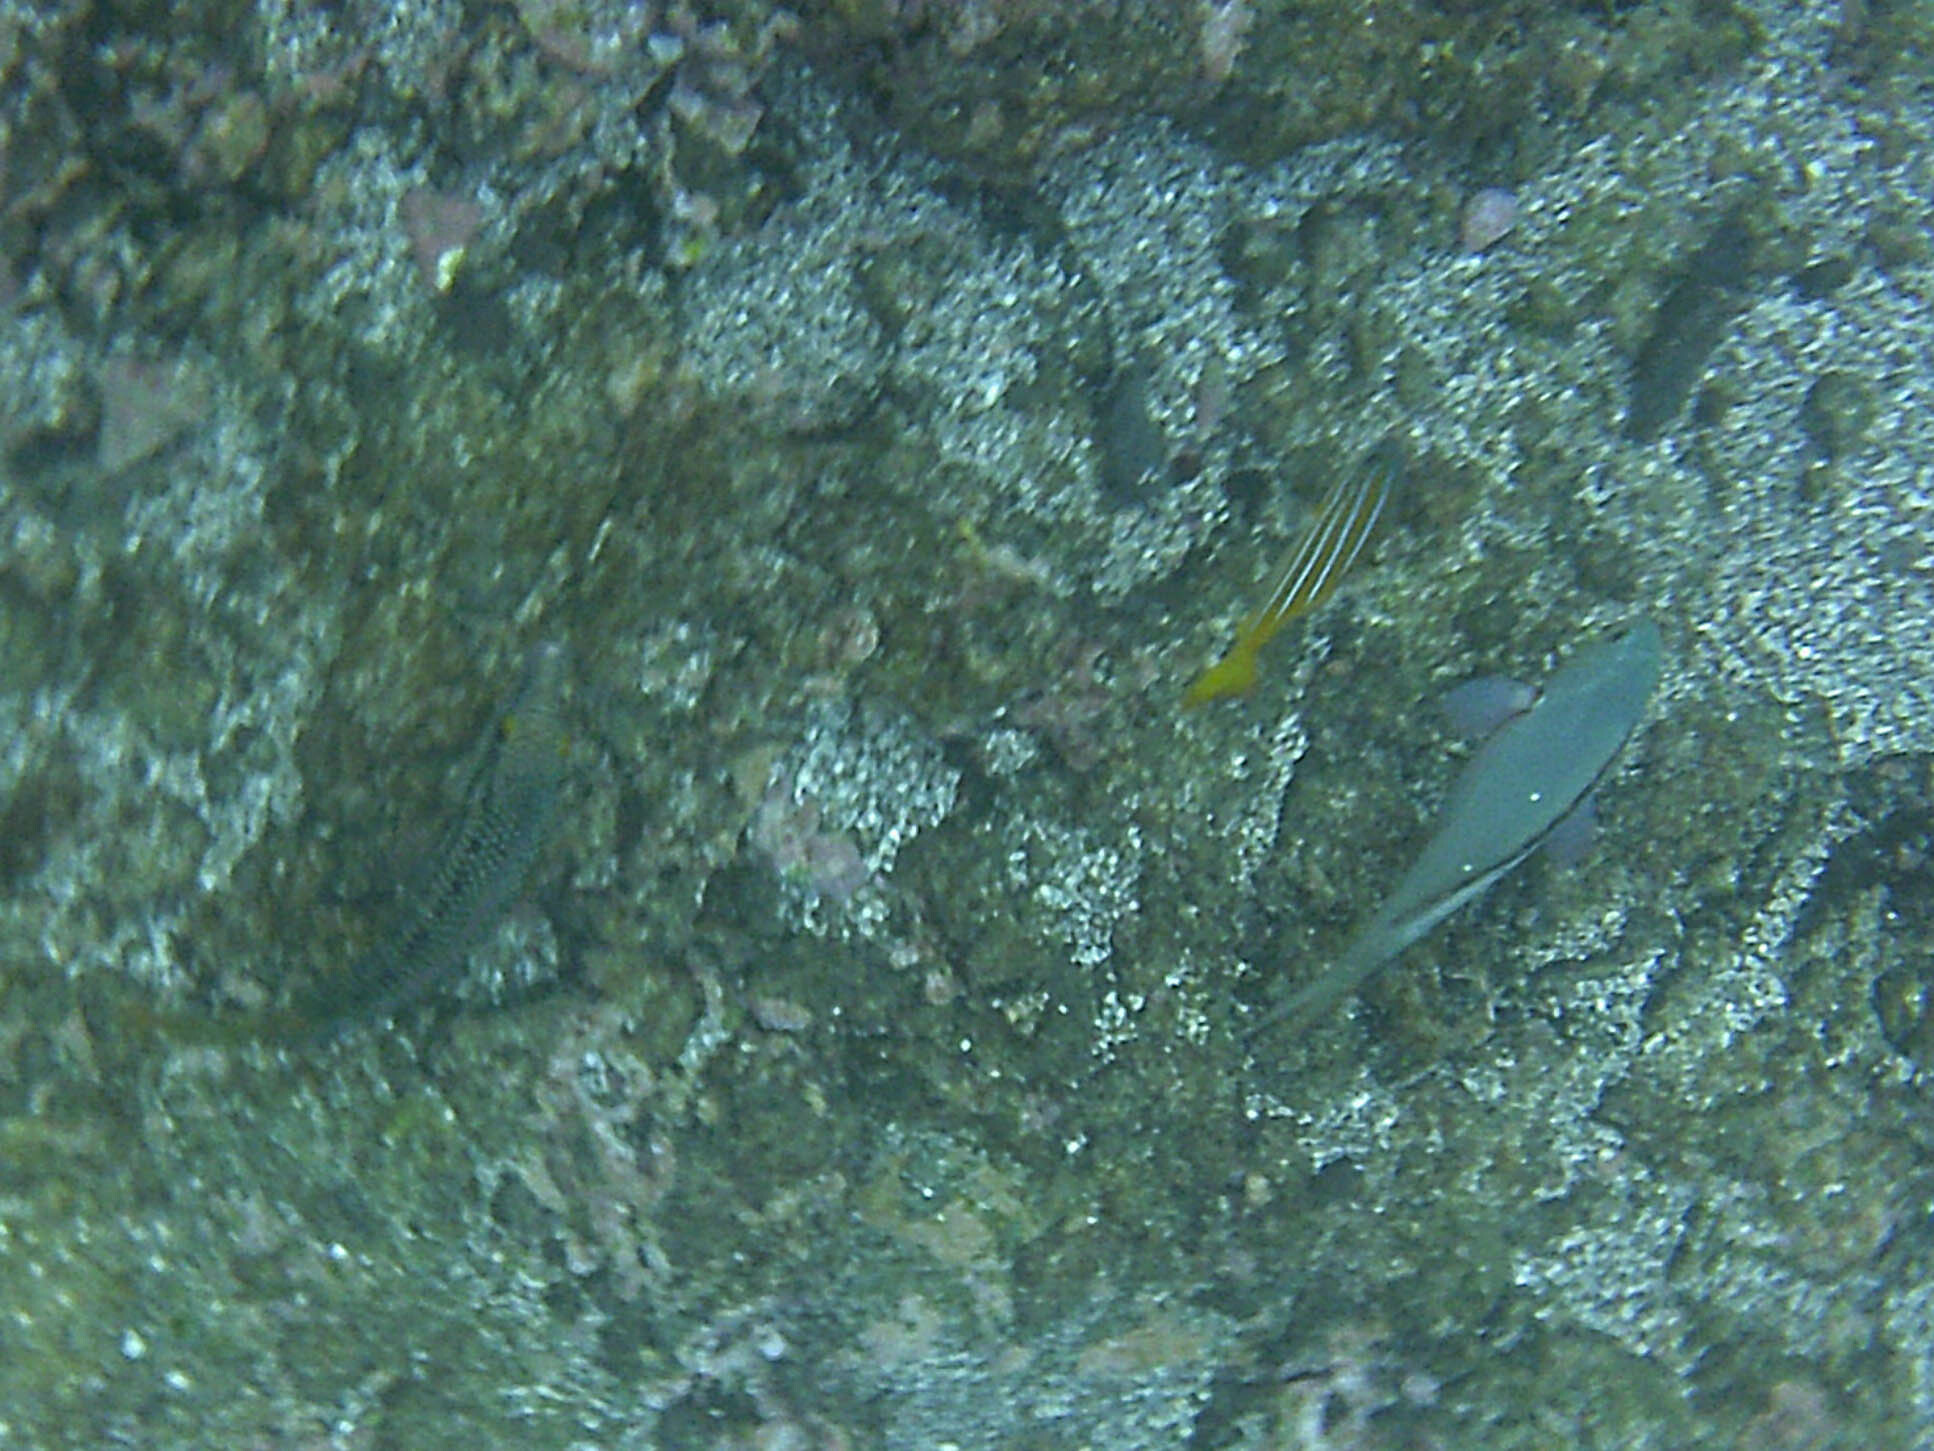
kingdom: Animalia
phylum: Chordata
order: Perciformes
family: Lutjanidae
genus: Lutjanus
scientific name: Lutjanus viridis
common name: Blue and gold snapper
